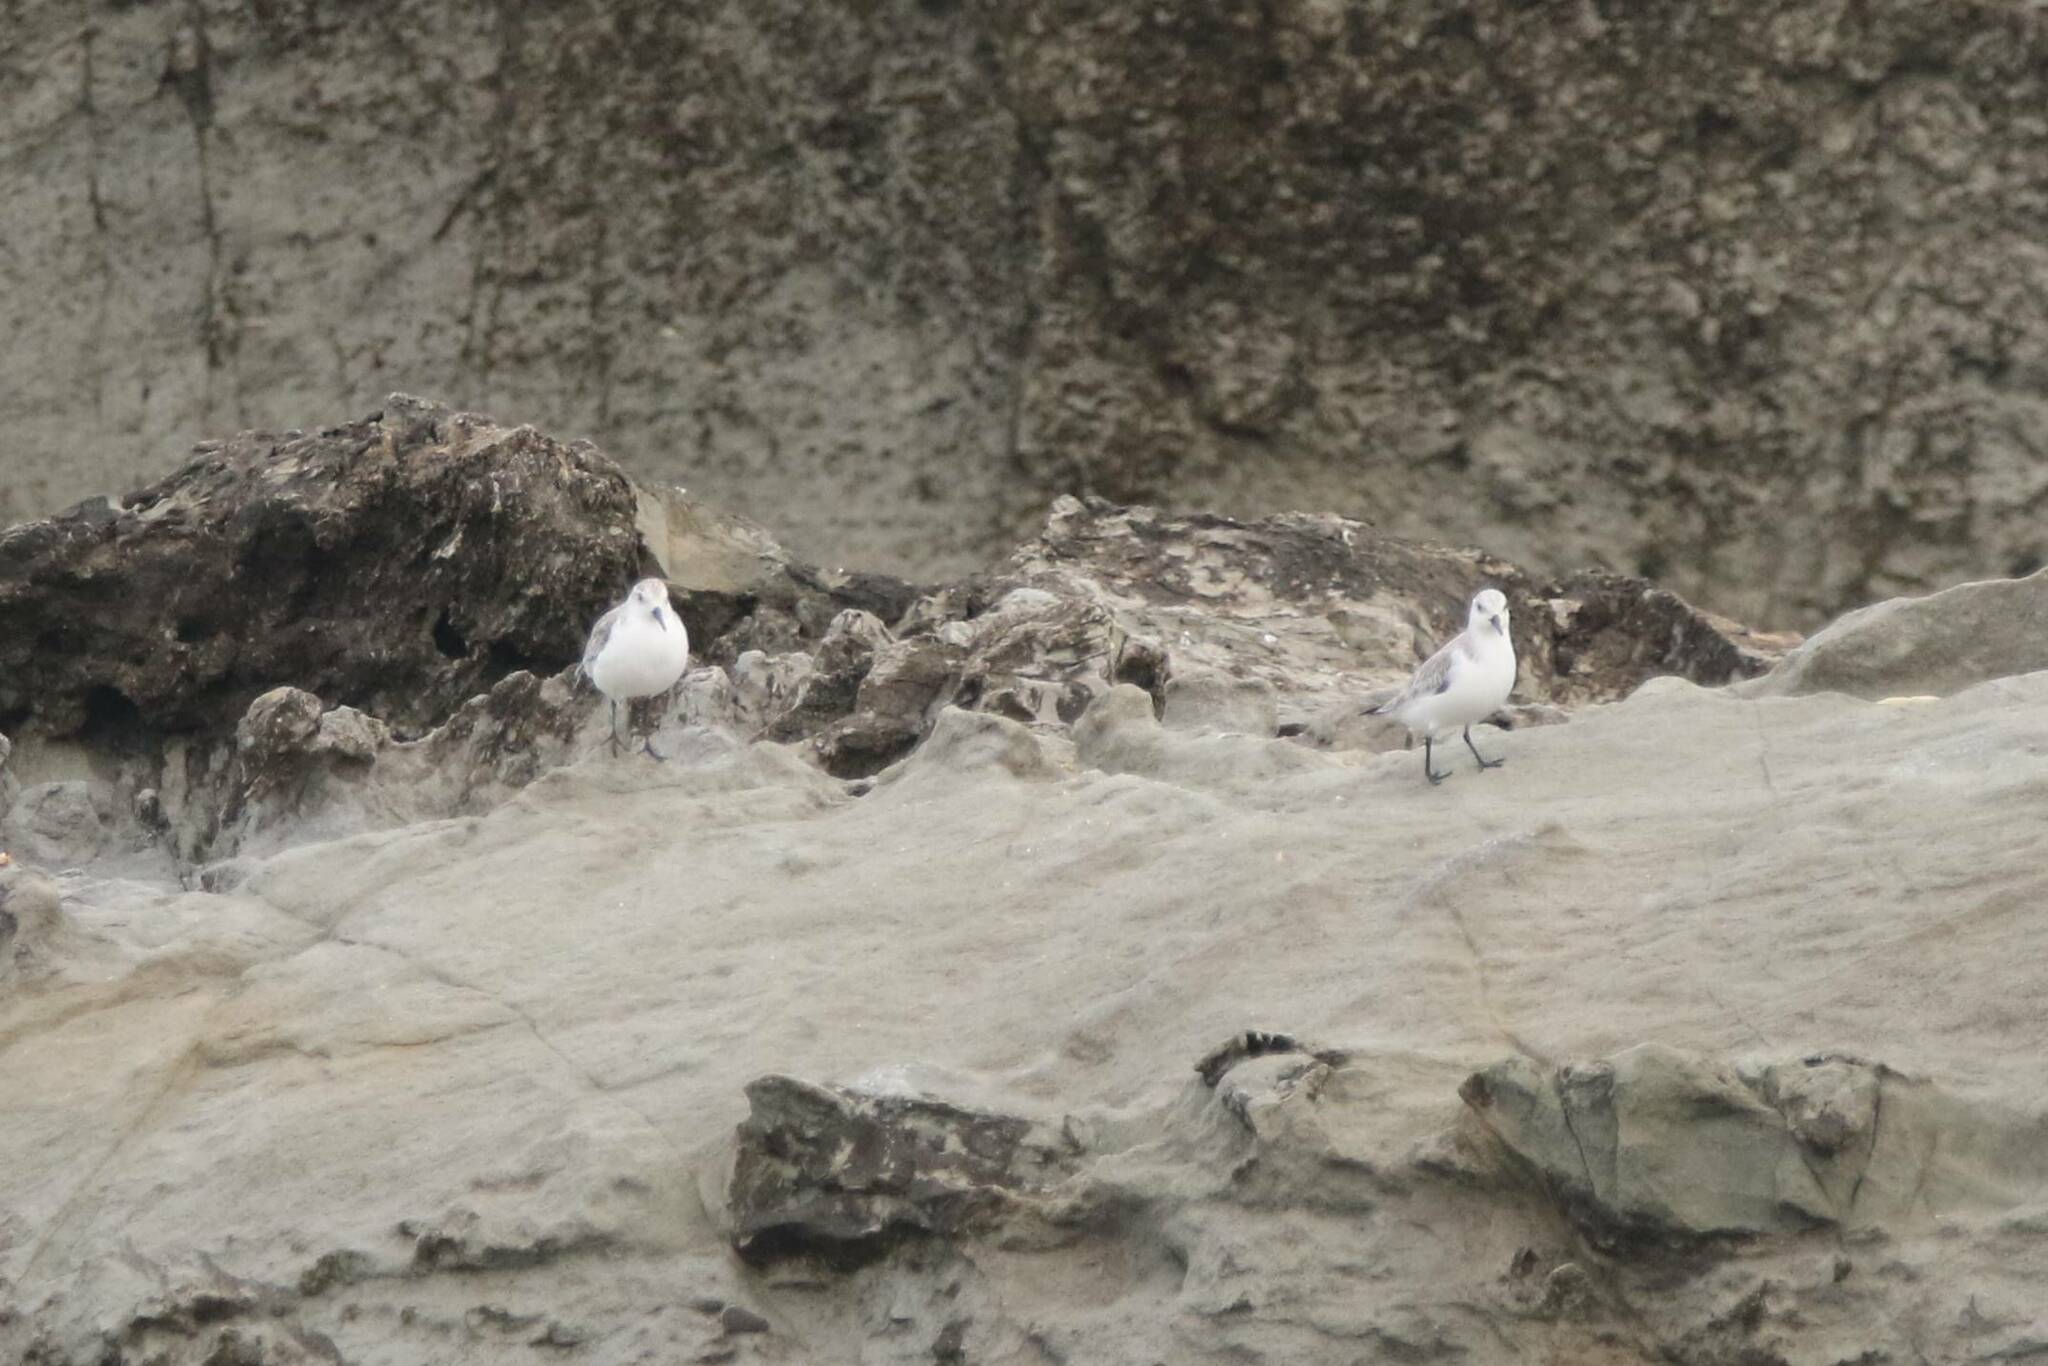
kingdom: Animalia
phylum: Chordata
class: Aves
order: Charadriiformes
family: Scolopacidae
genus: Calidris
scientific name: Calidris alba
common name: Sanderling
